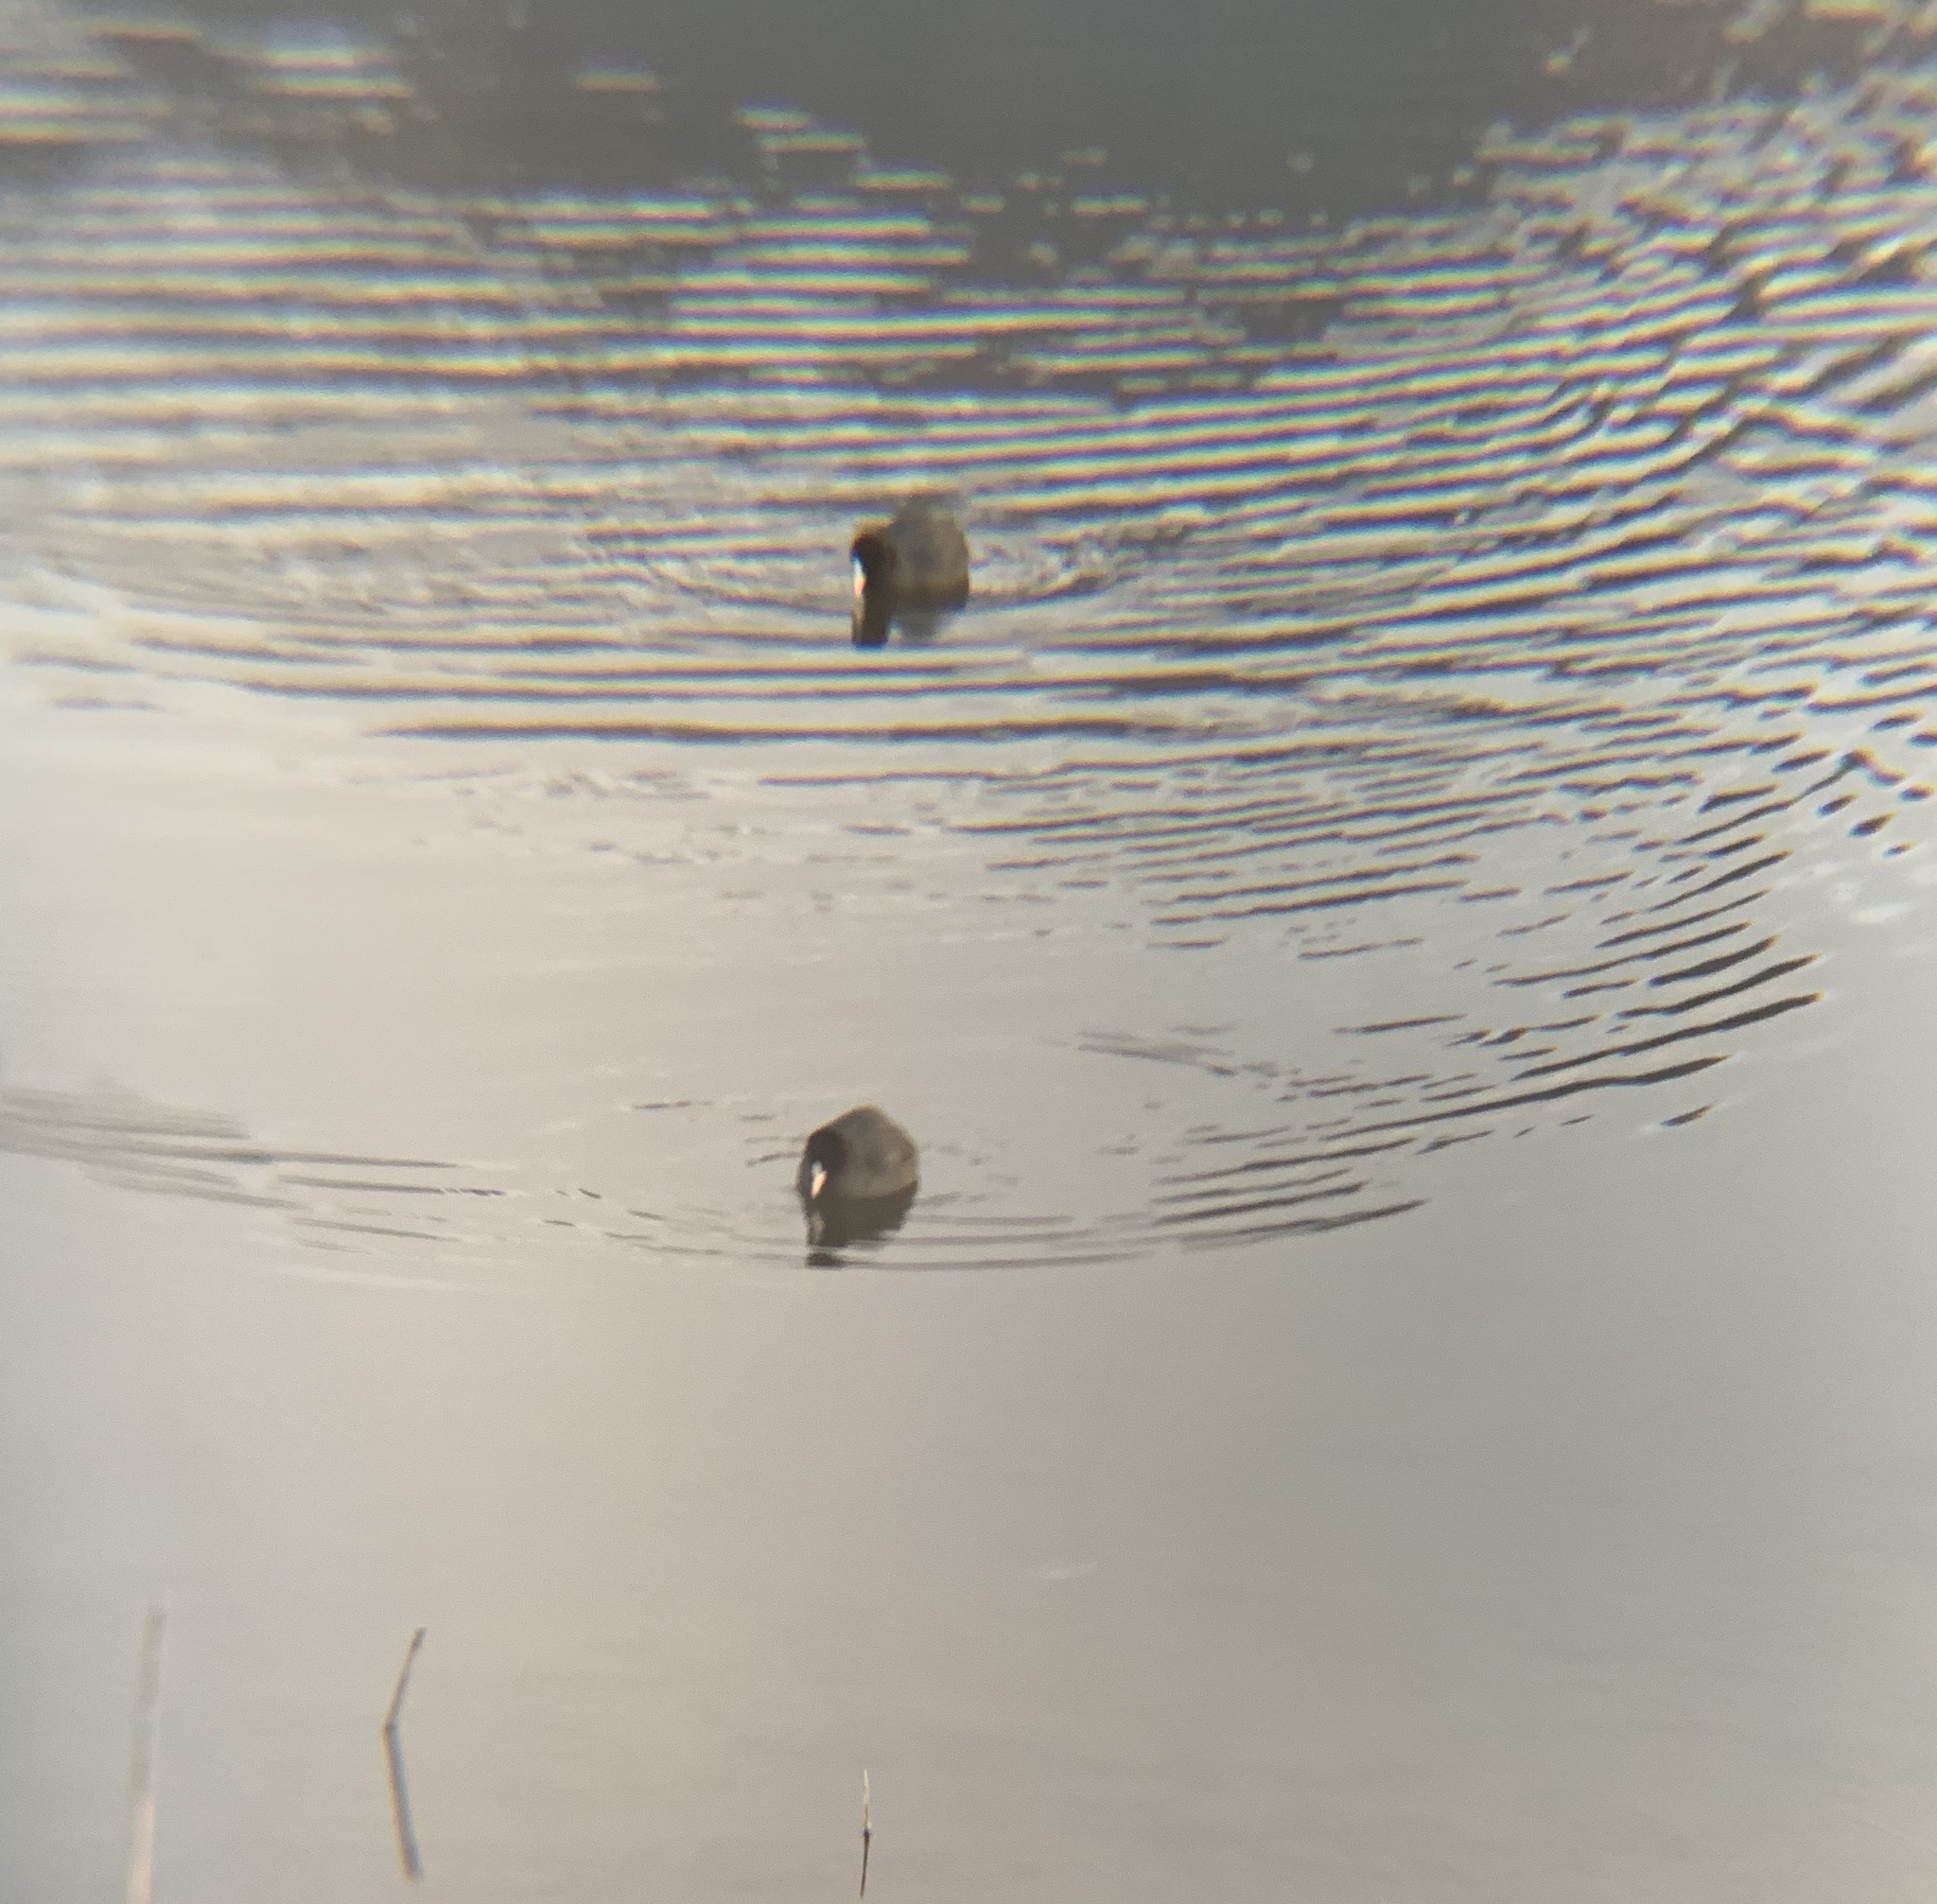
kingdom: Animalia
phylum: Chordata
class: Aves
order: Gruiformes
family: Rallidae
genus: Fulica
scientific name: Fulica atra
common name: Eurasian coot
